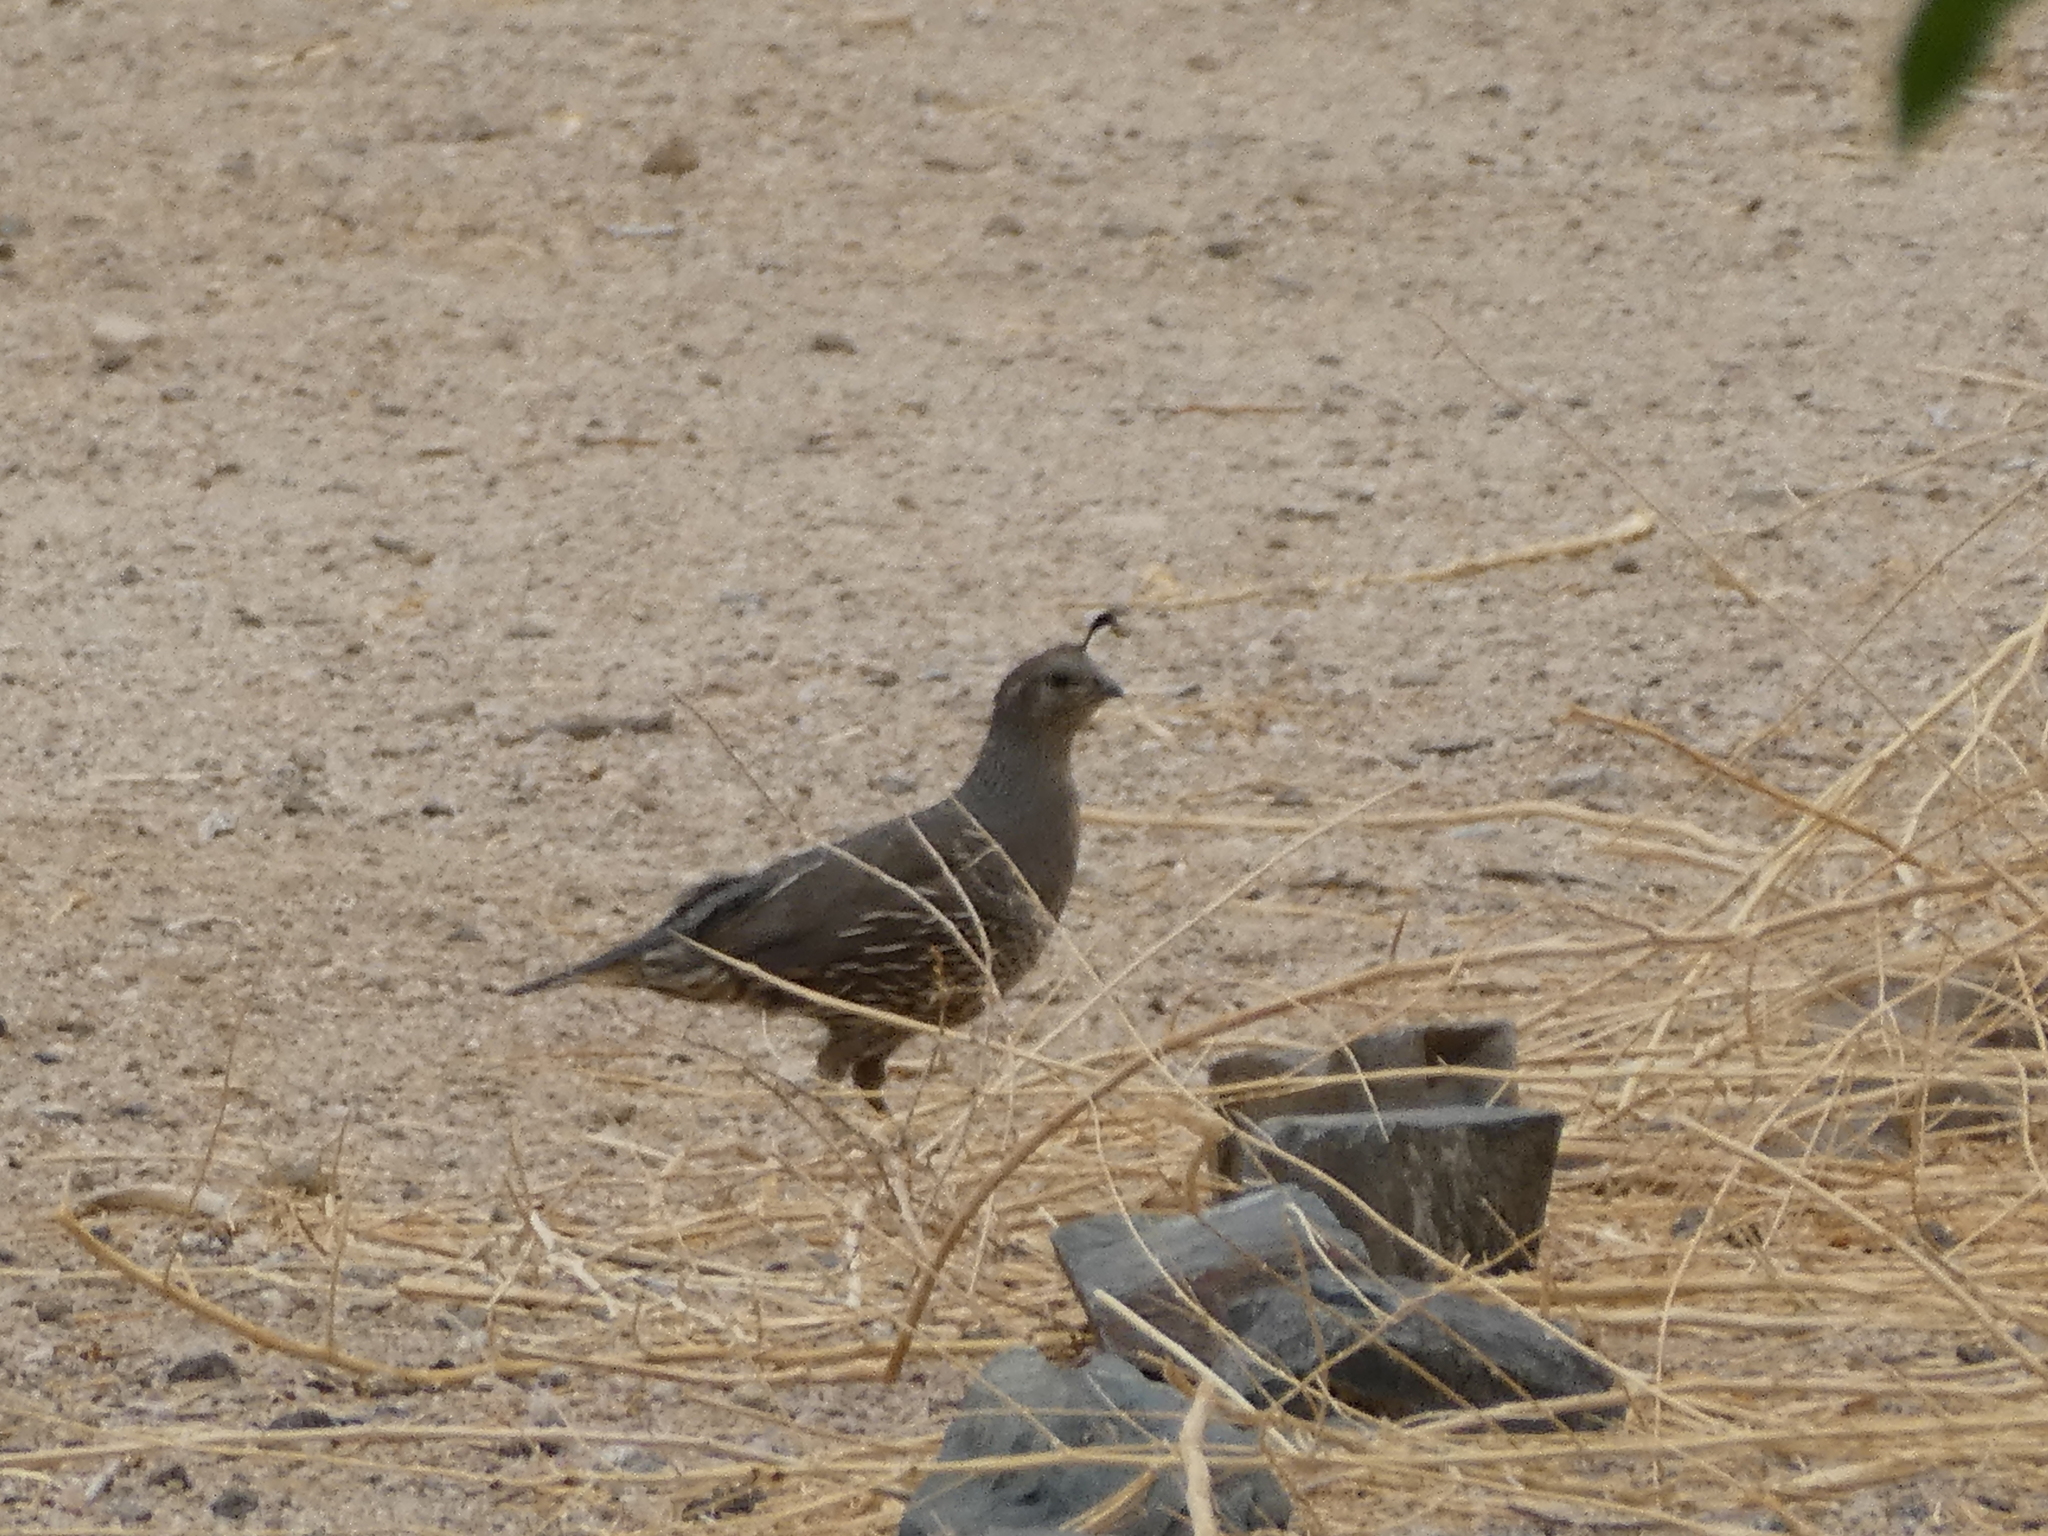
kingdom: Animalia
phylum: Chordata
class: Aves
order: Galliformes
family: Odontophoridae
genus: Callipepla
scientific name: Callipepla californica
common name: California quail
